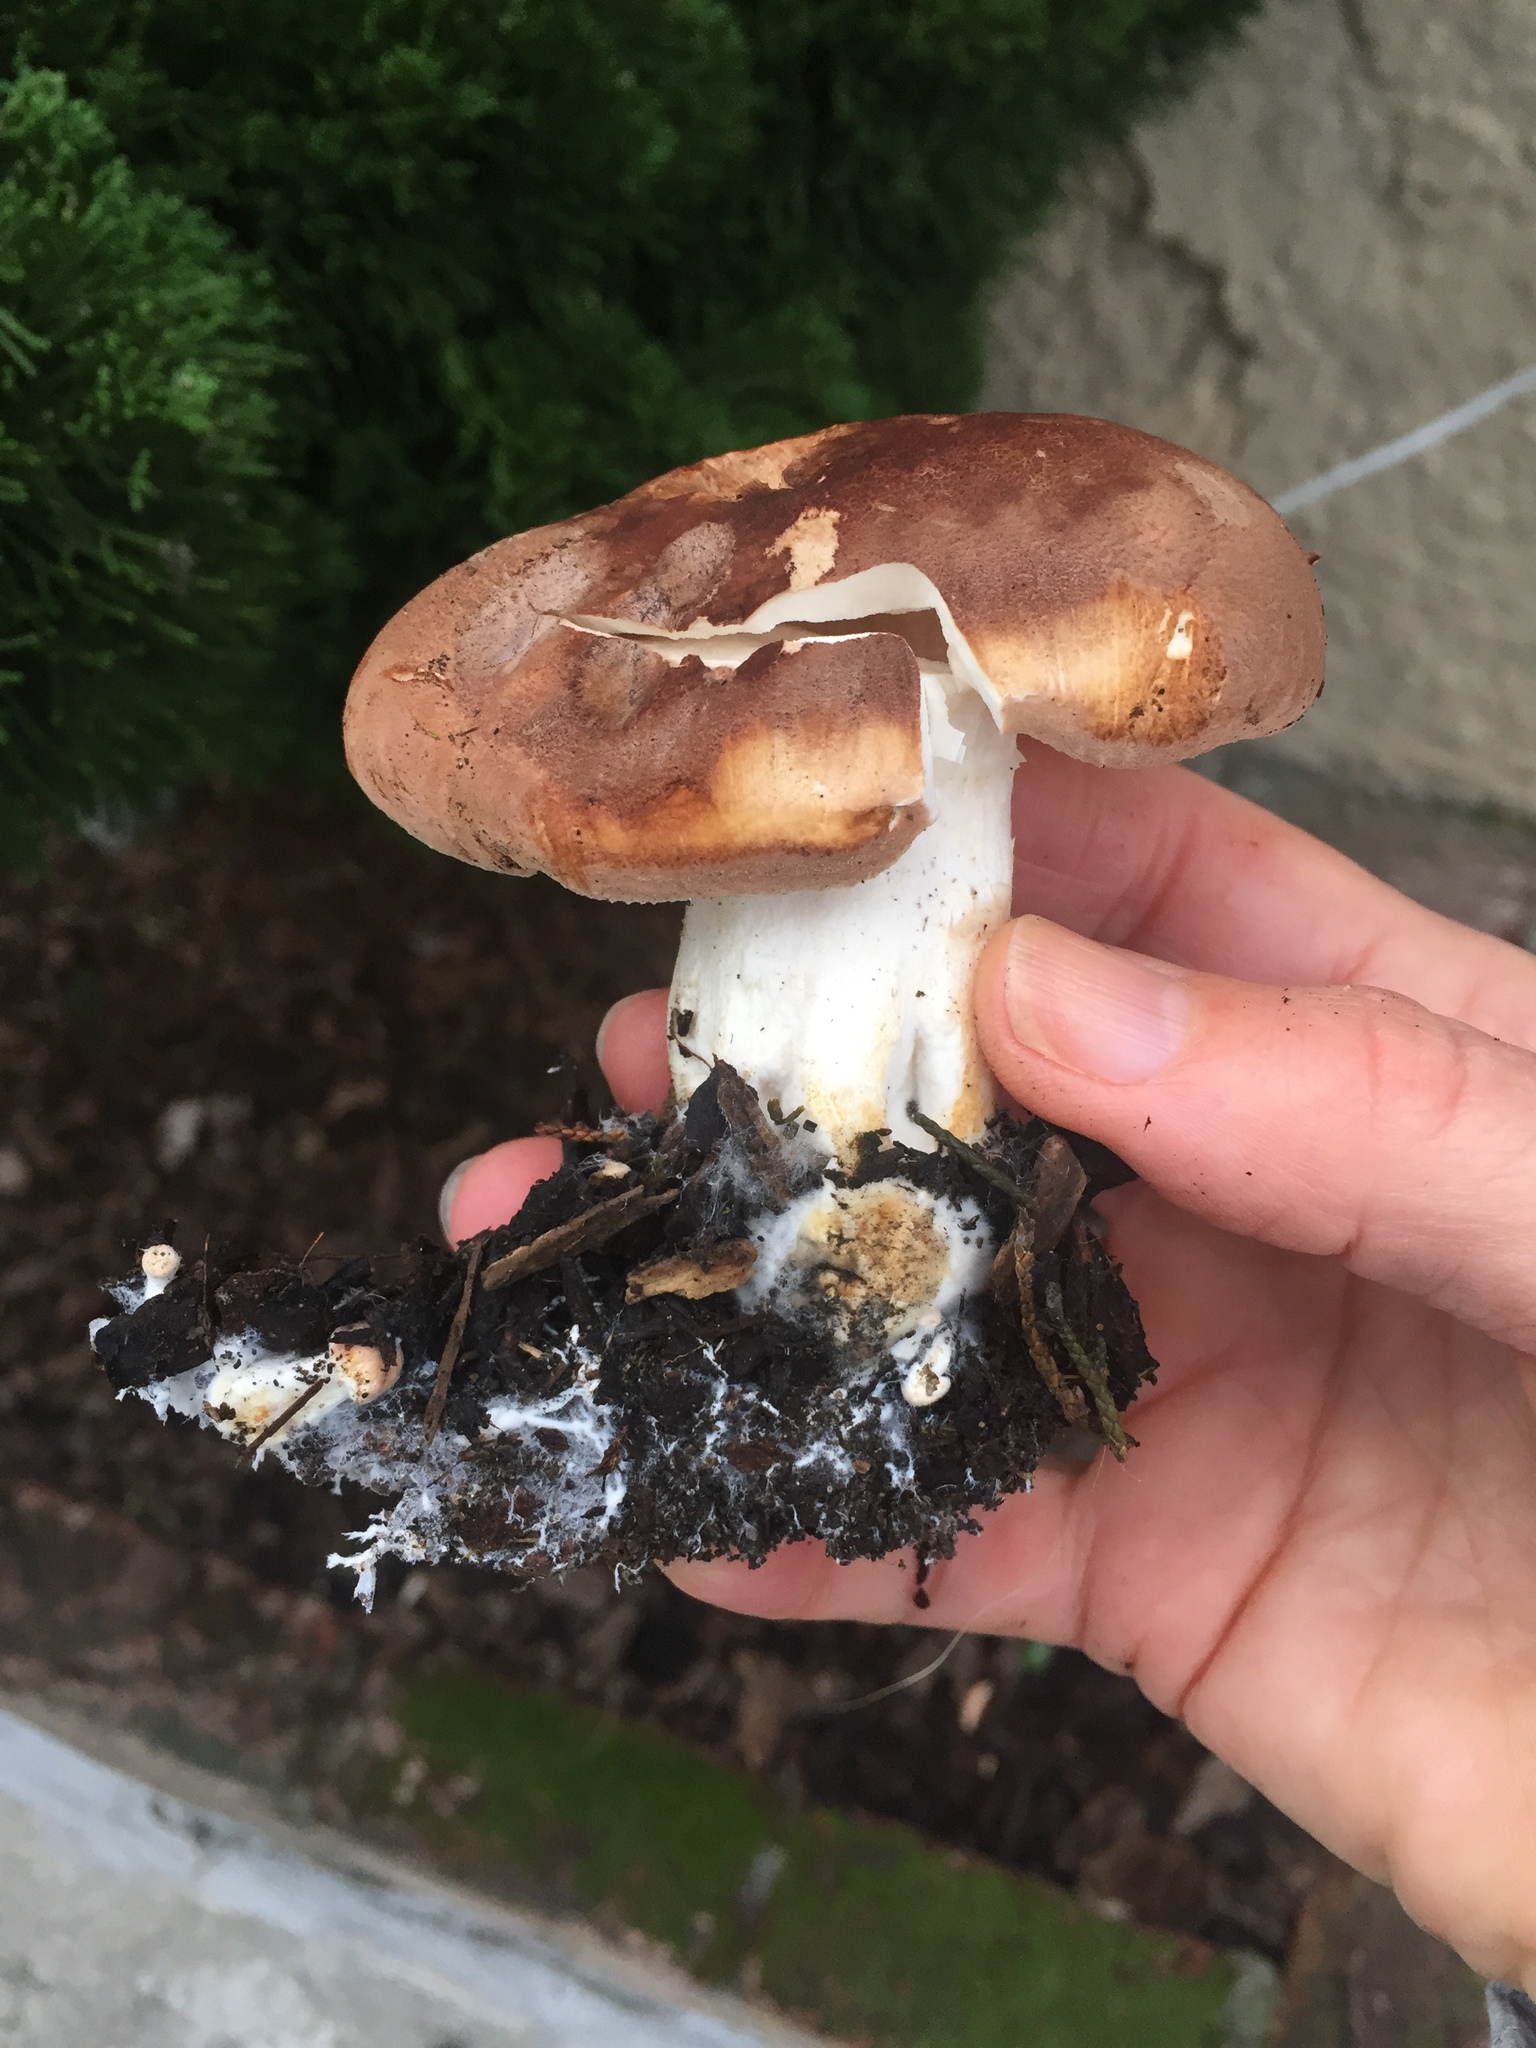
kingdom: Fungi
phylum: Basidiomycota
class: Agaricomycetes
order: Agaricales
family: Tricholomataceae
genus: Leucopaxillus
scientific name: Leucopaxillus gentianeus
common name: Bitter funnel
